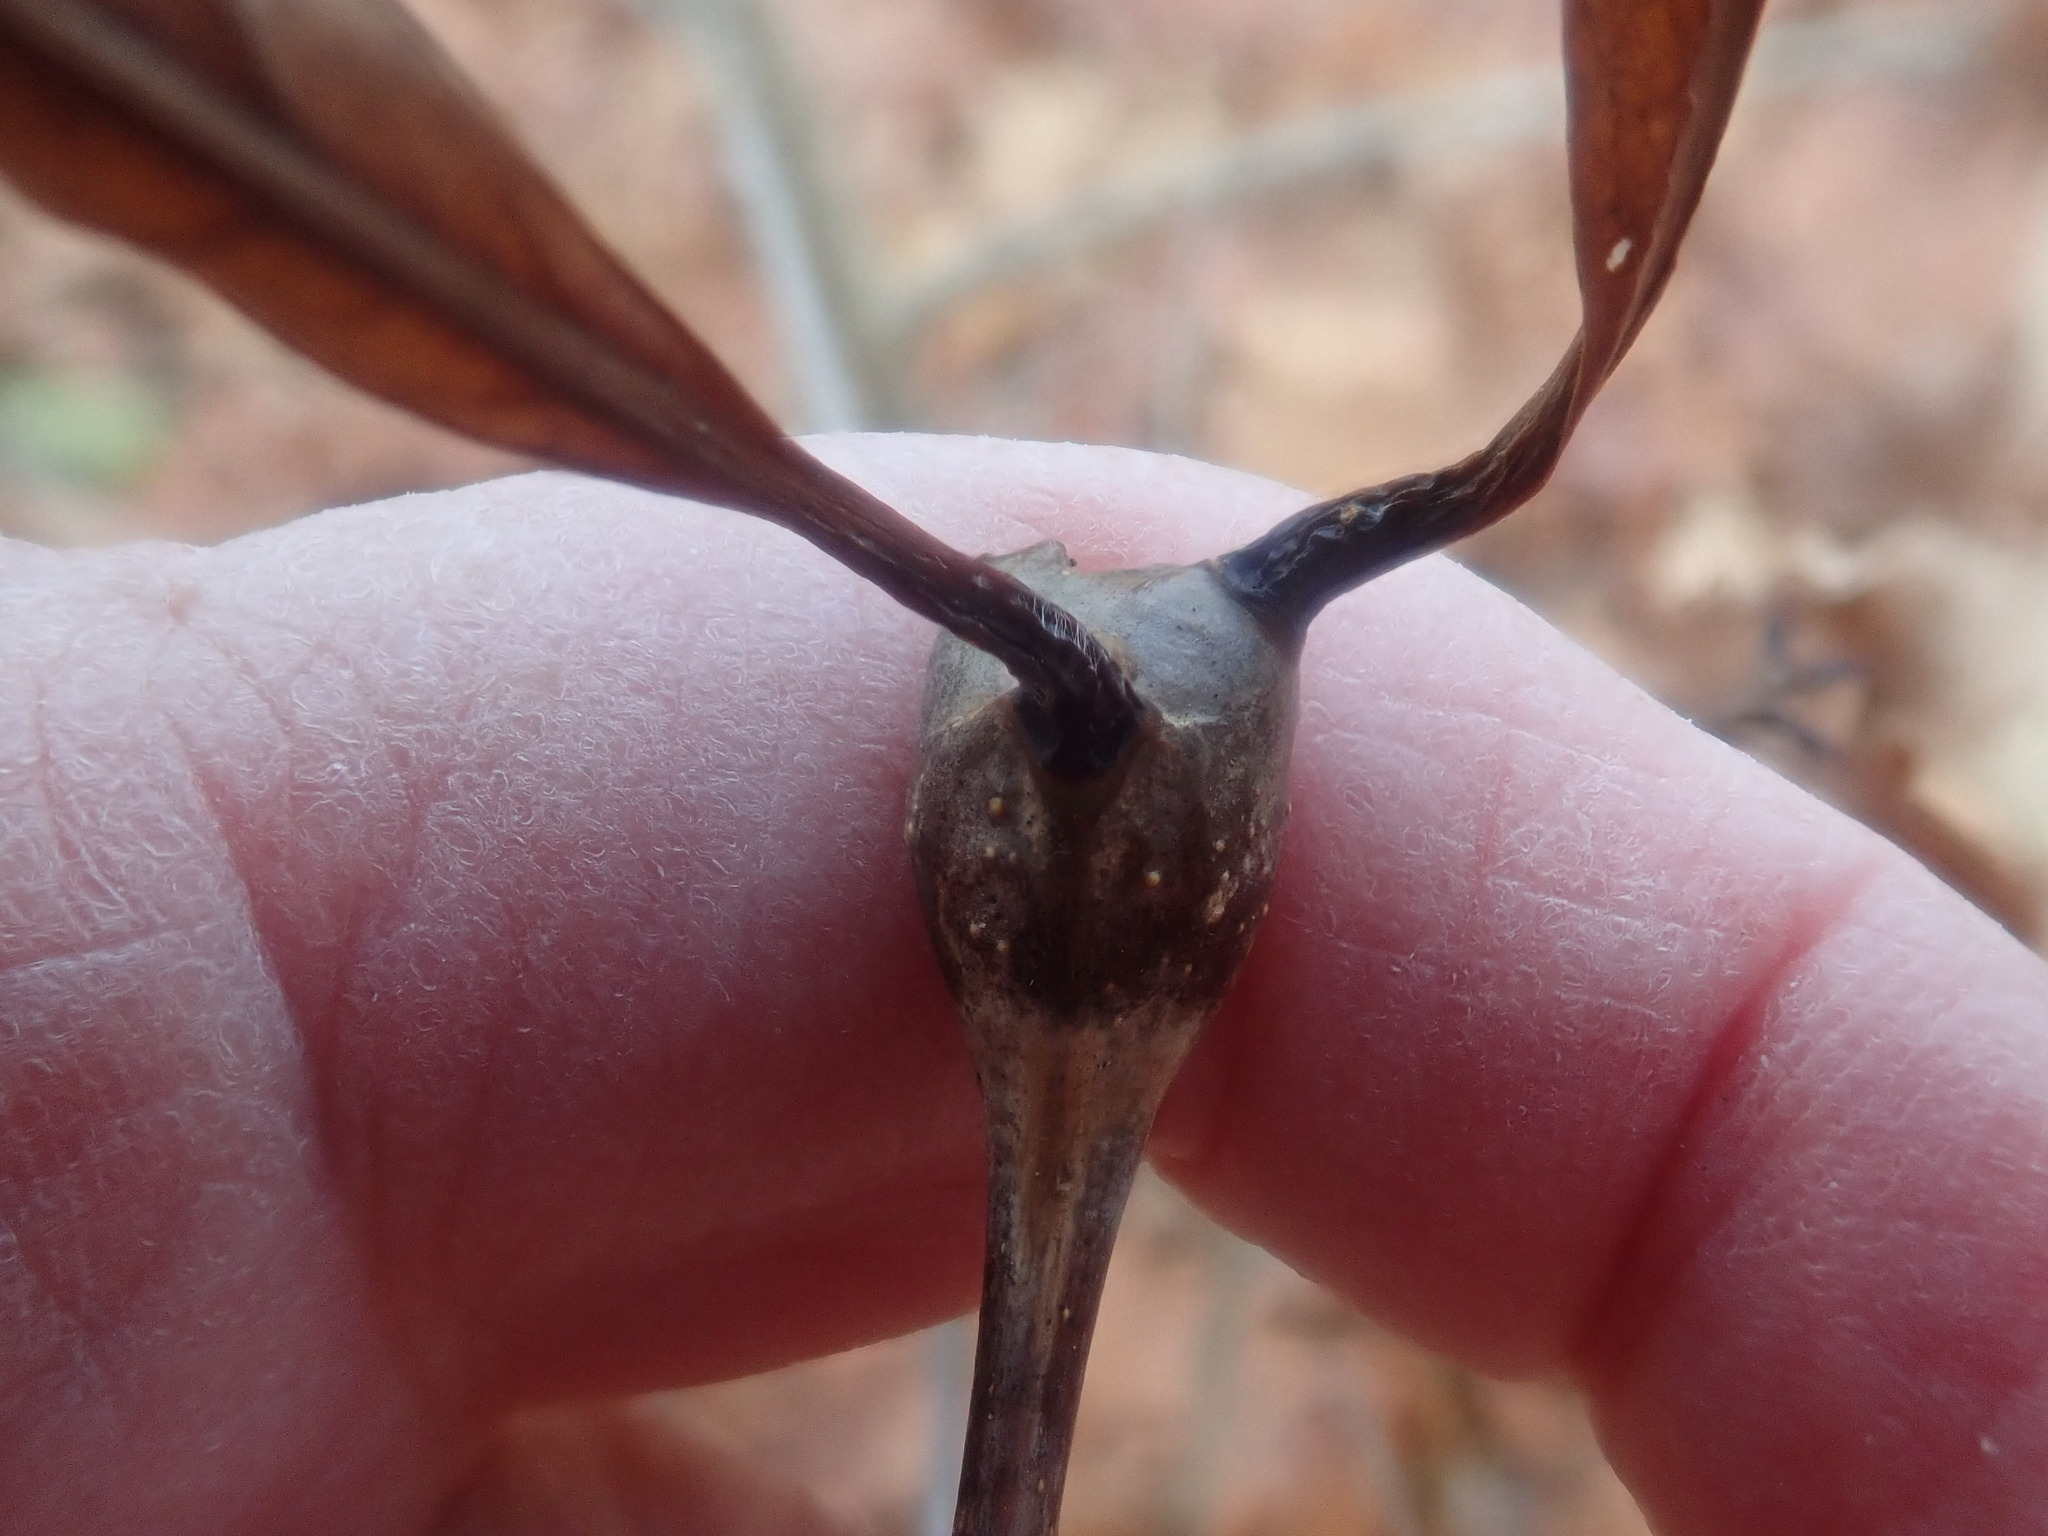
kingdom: Animalia
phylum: Arthropoda
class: Insecta
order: Hymenoptera
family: Cynipidae
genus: Callirhytis
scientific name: Callirhytis clavula
